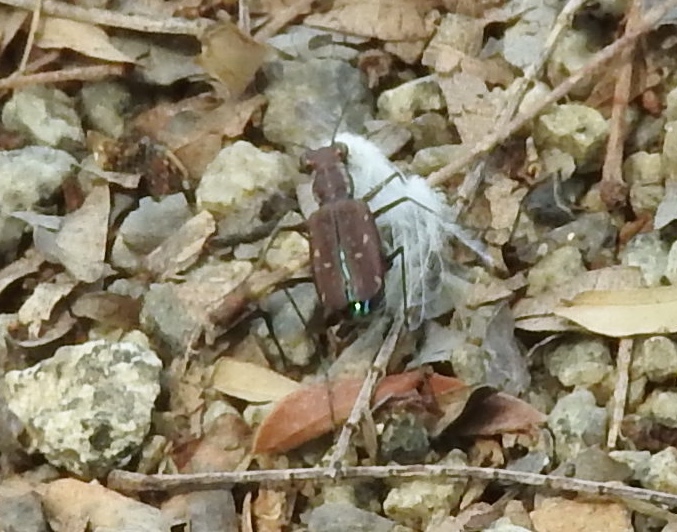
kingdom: Animalia
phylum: Arthropoda
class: Insecta
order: Coleoptera
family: Carabidae
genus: Cicindela
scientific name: Cicindela
